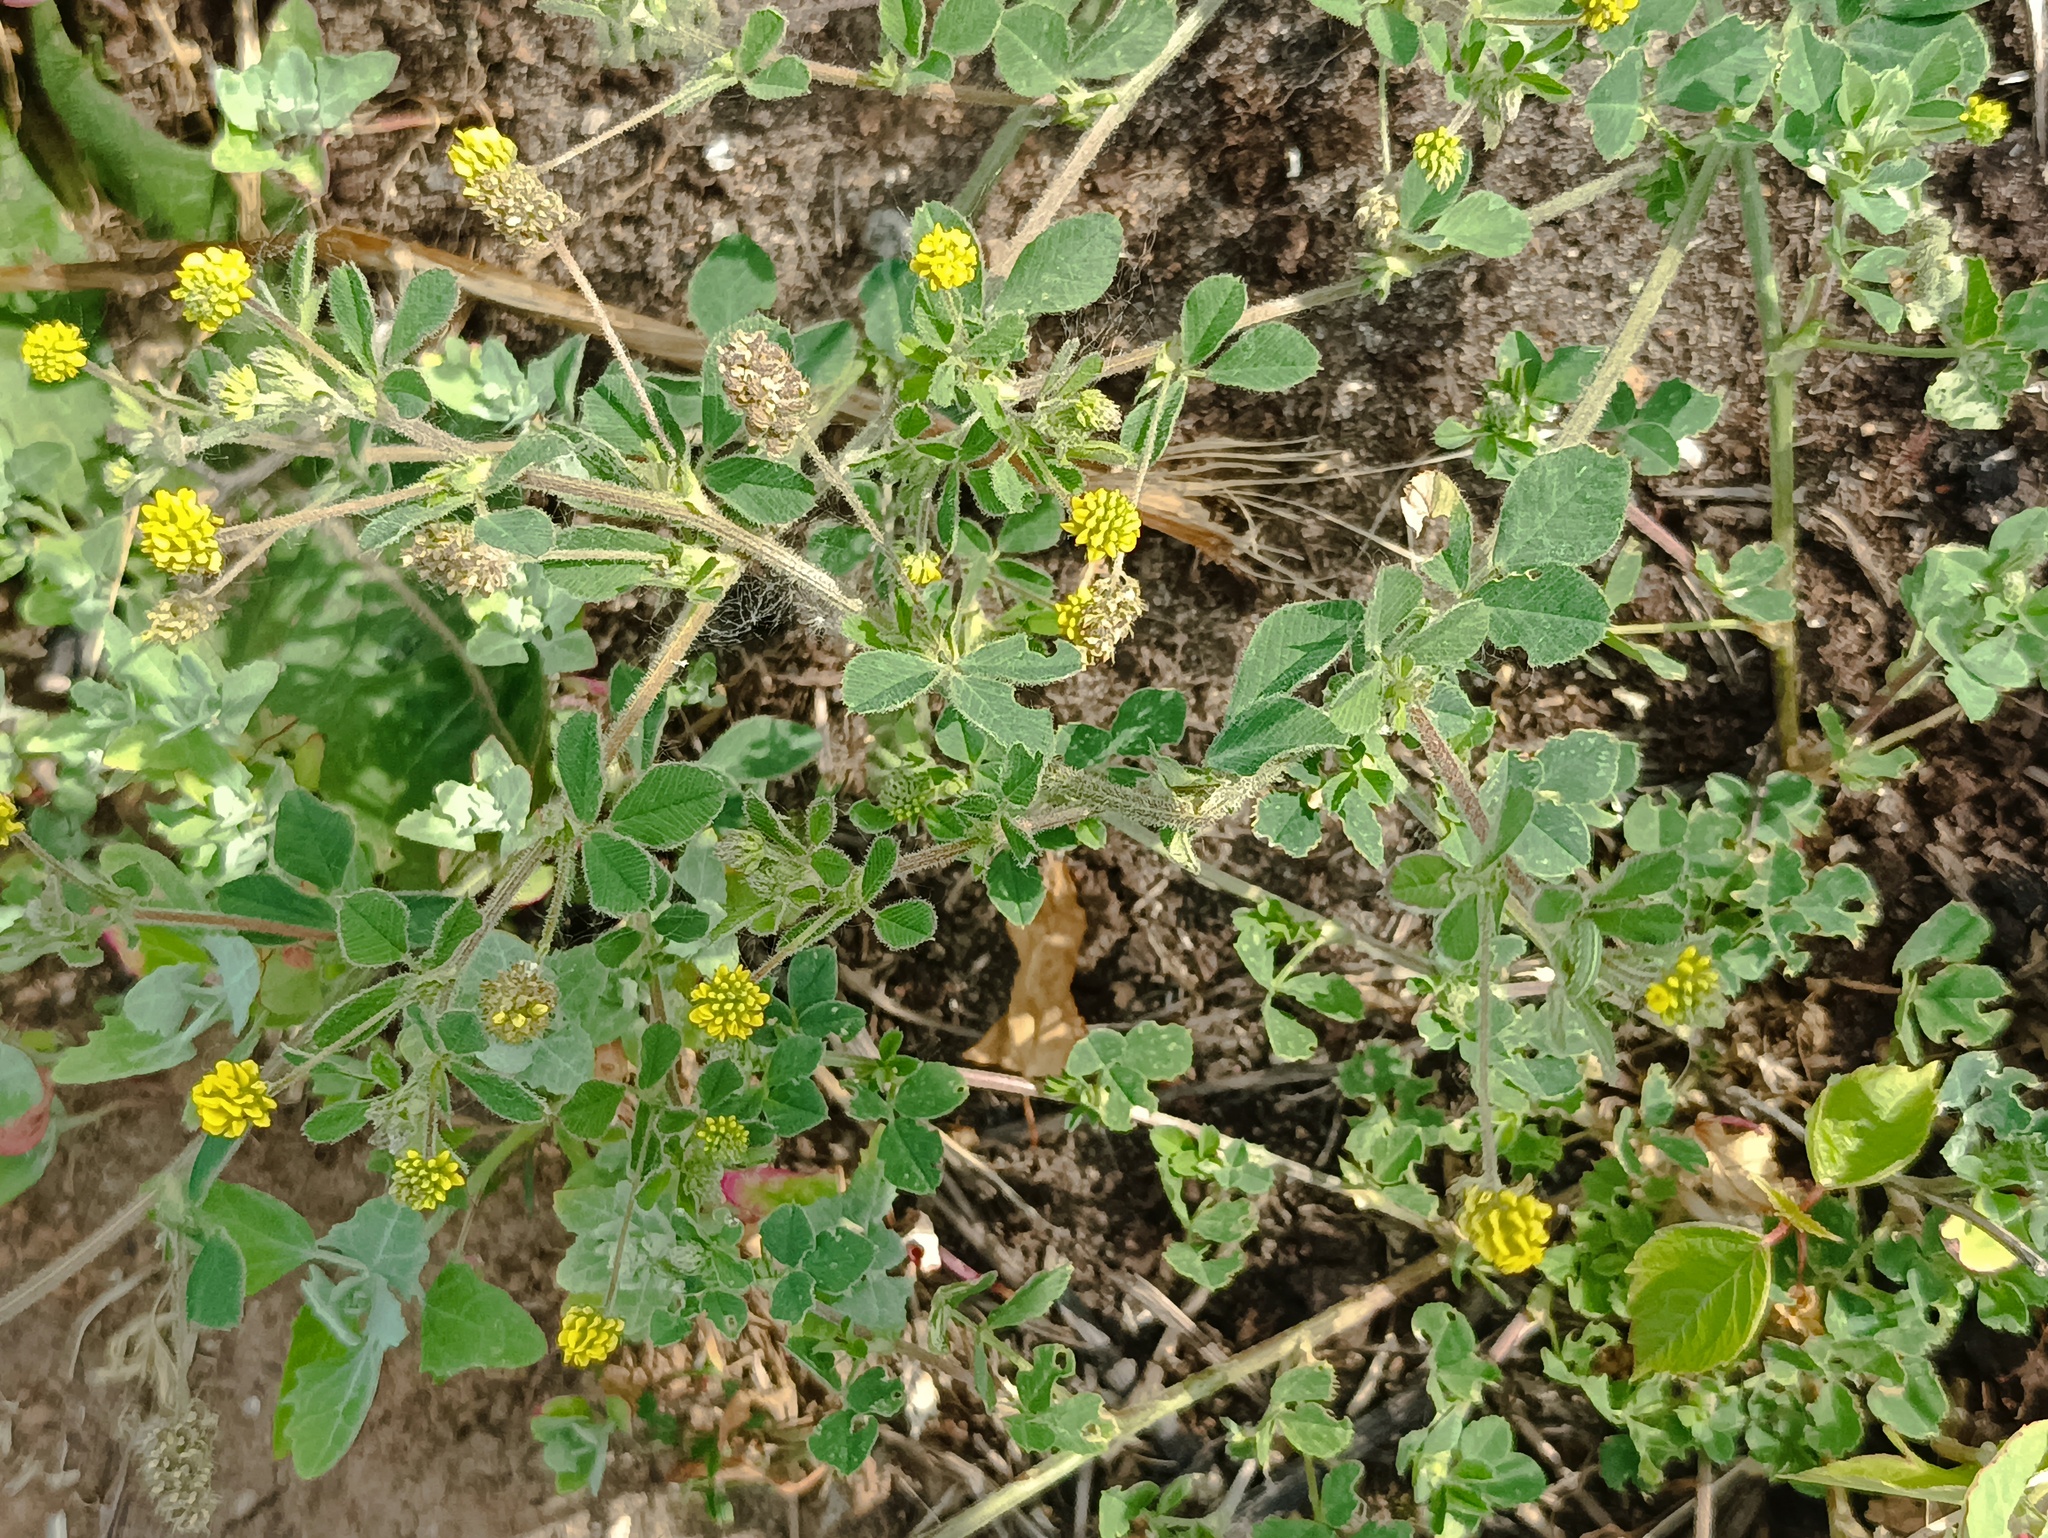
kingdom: Plantae
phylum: Tracheophyta
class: Magnoliopsida
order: Fabales
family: Fabaceae
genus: Medicago
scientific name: Medicago lupulina
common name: Black medick
